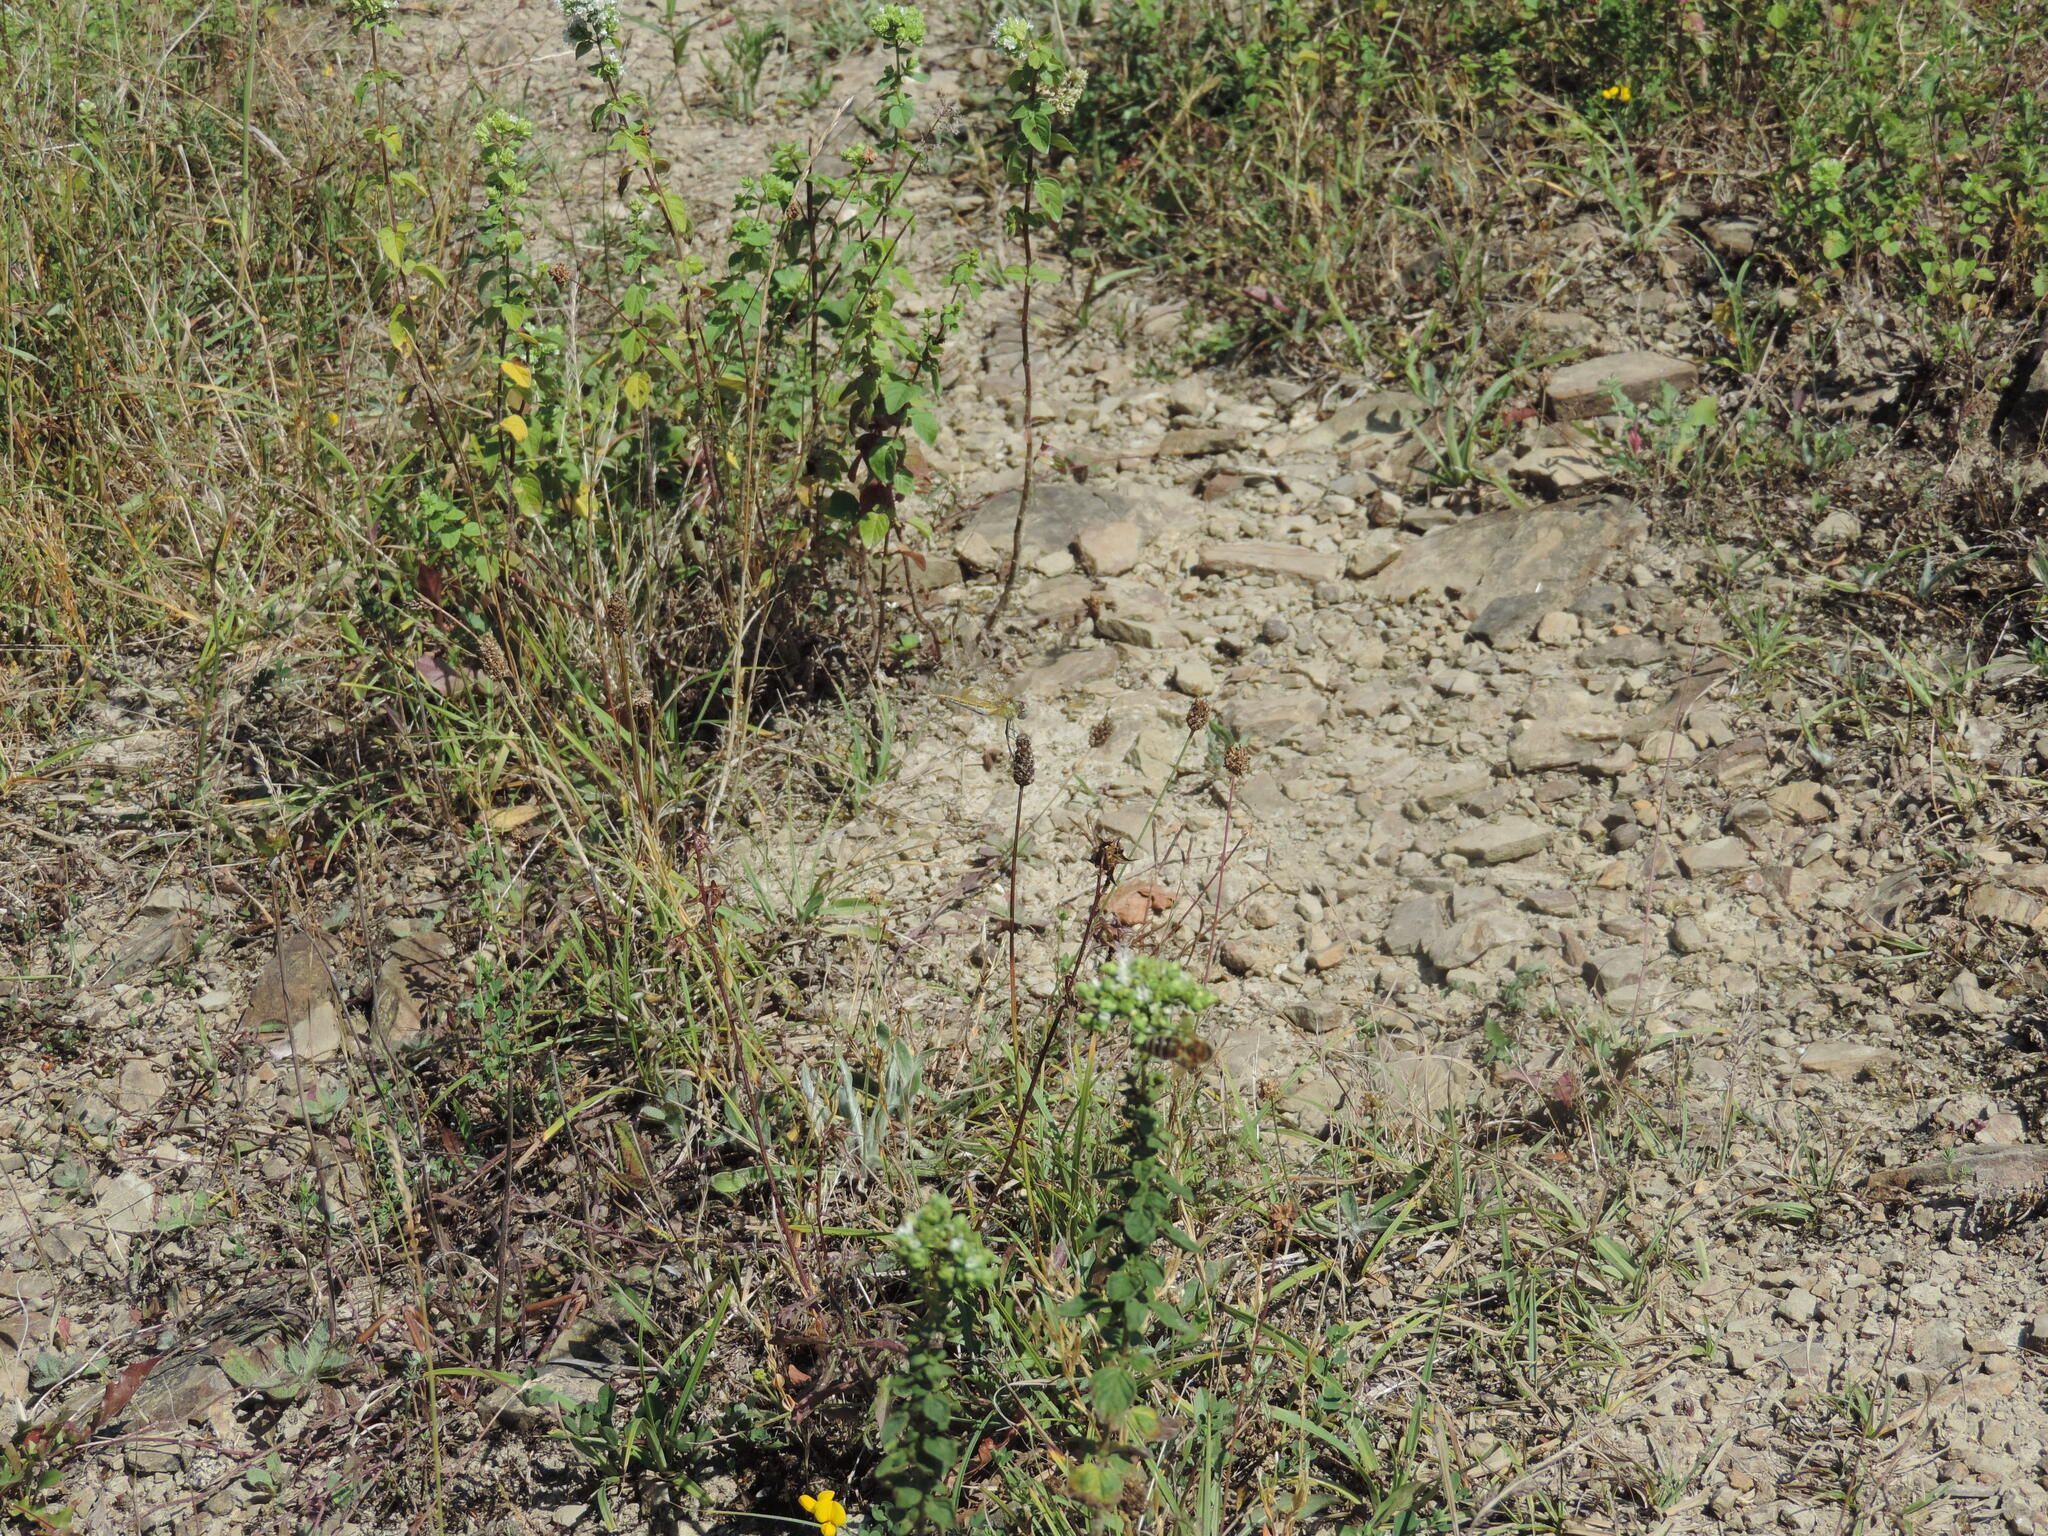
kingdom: Animalia
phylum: Arthropoda
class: Insecta
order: Odonata
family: Libellulidae
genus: Sympetrum
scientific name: Sympetrum fonscolombii
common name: Red-veined darter
